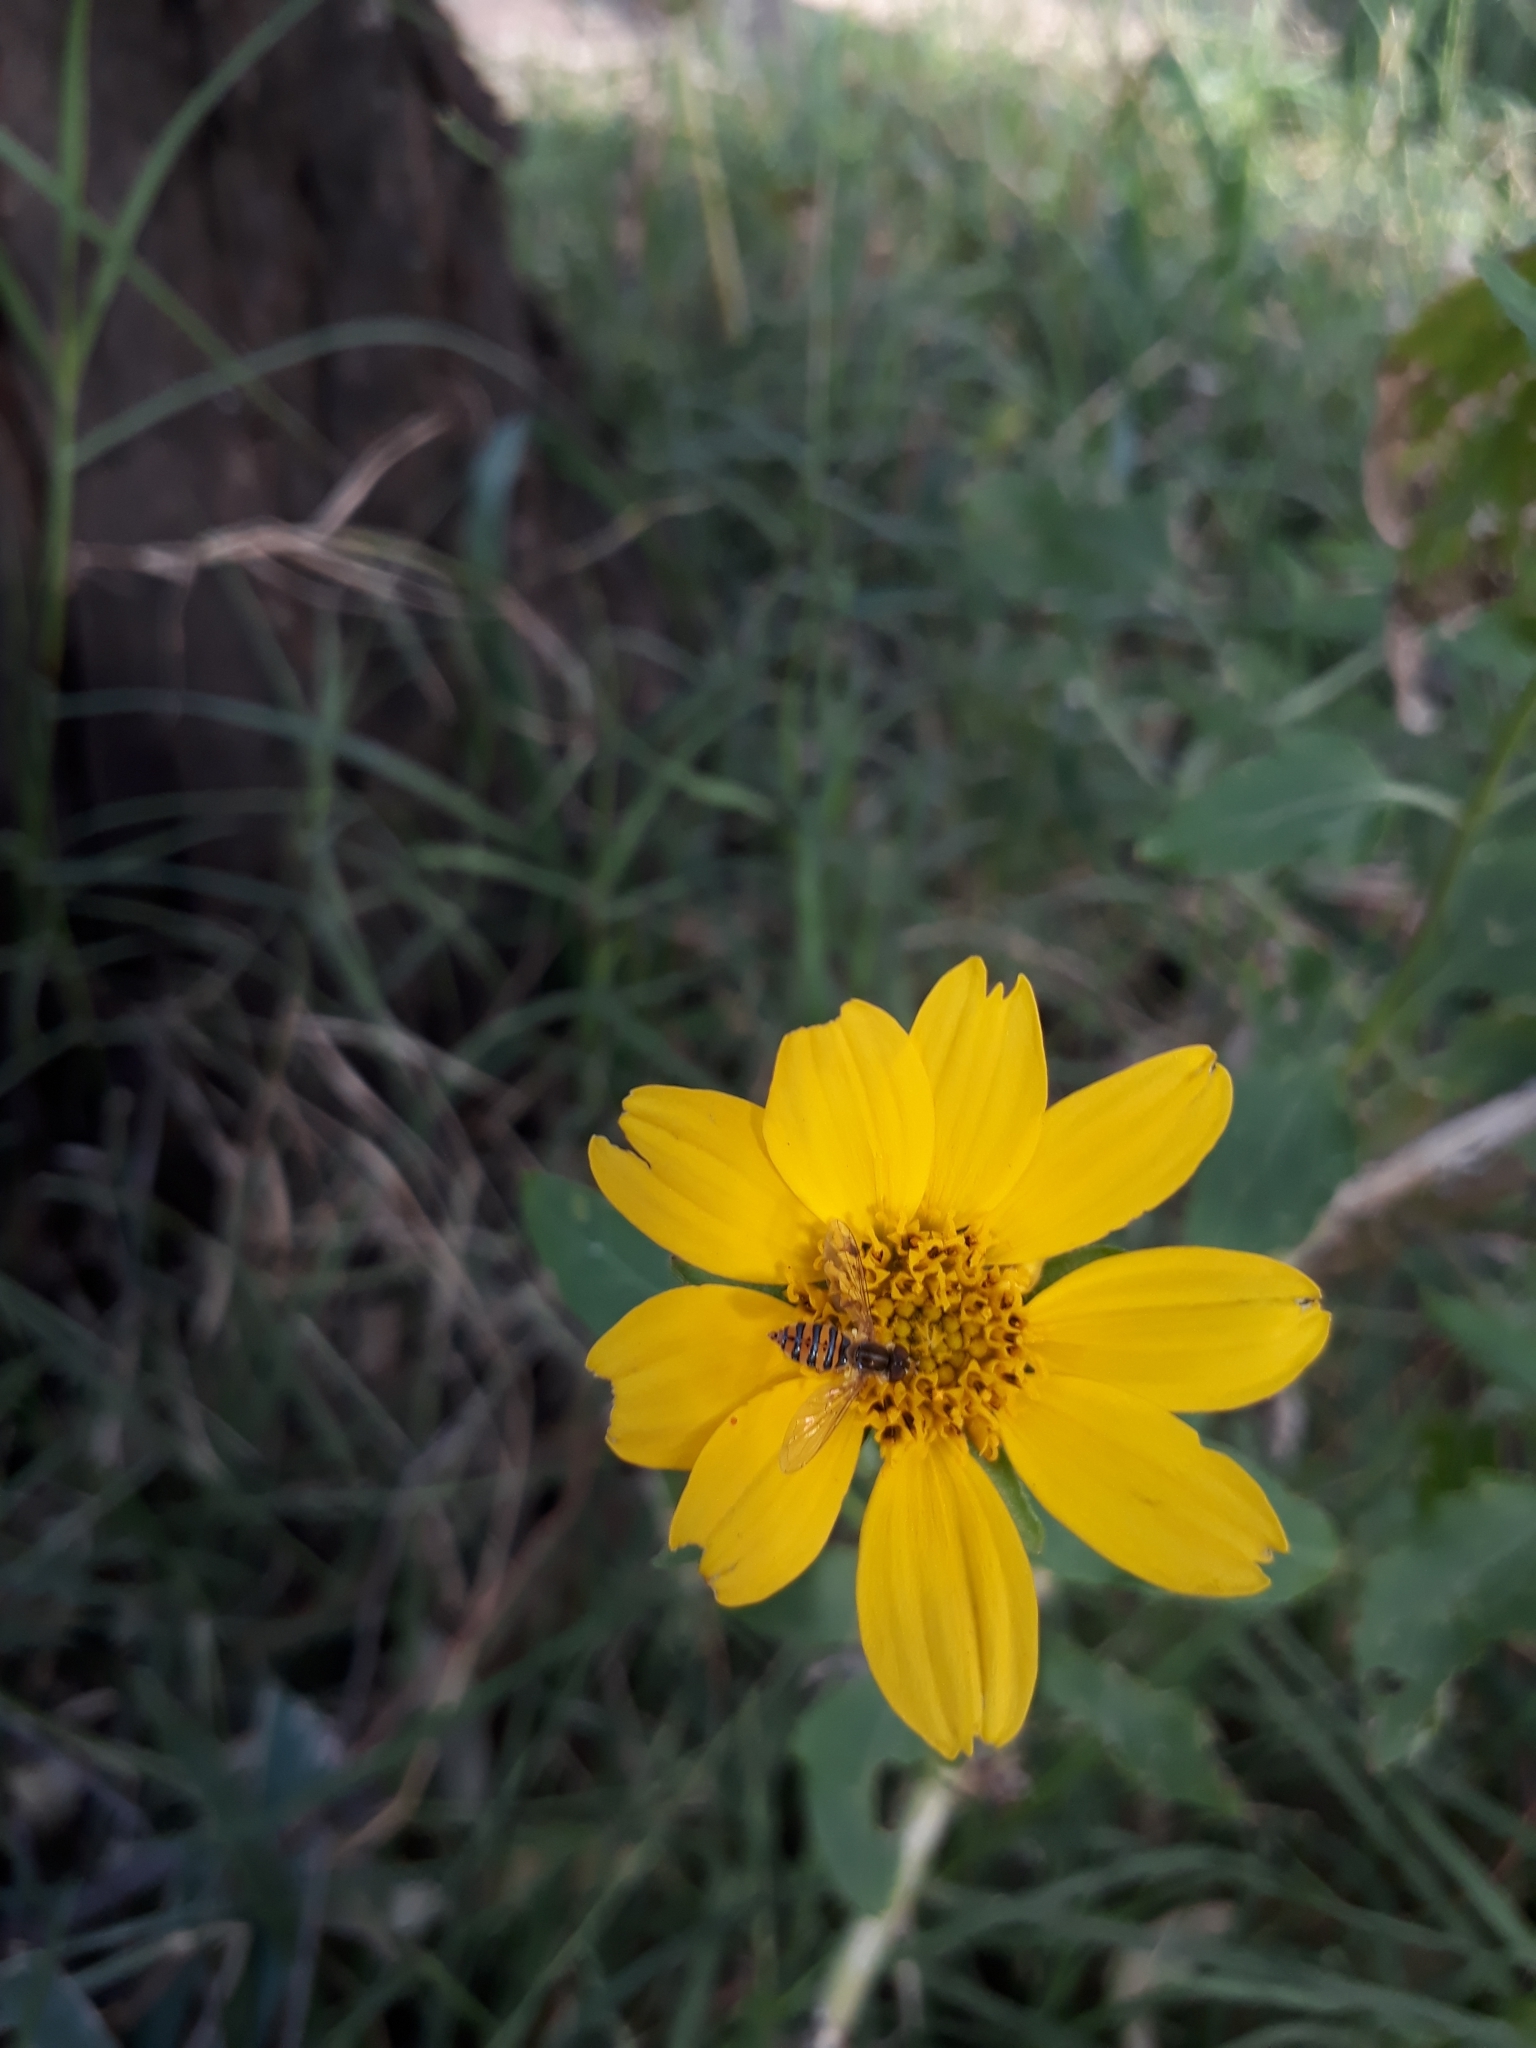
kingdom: Animalia
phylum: Arthropoda
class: Insecta
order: Diptera
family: Syrphidae
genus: Toxomerus
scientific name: Toxomerus
